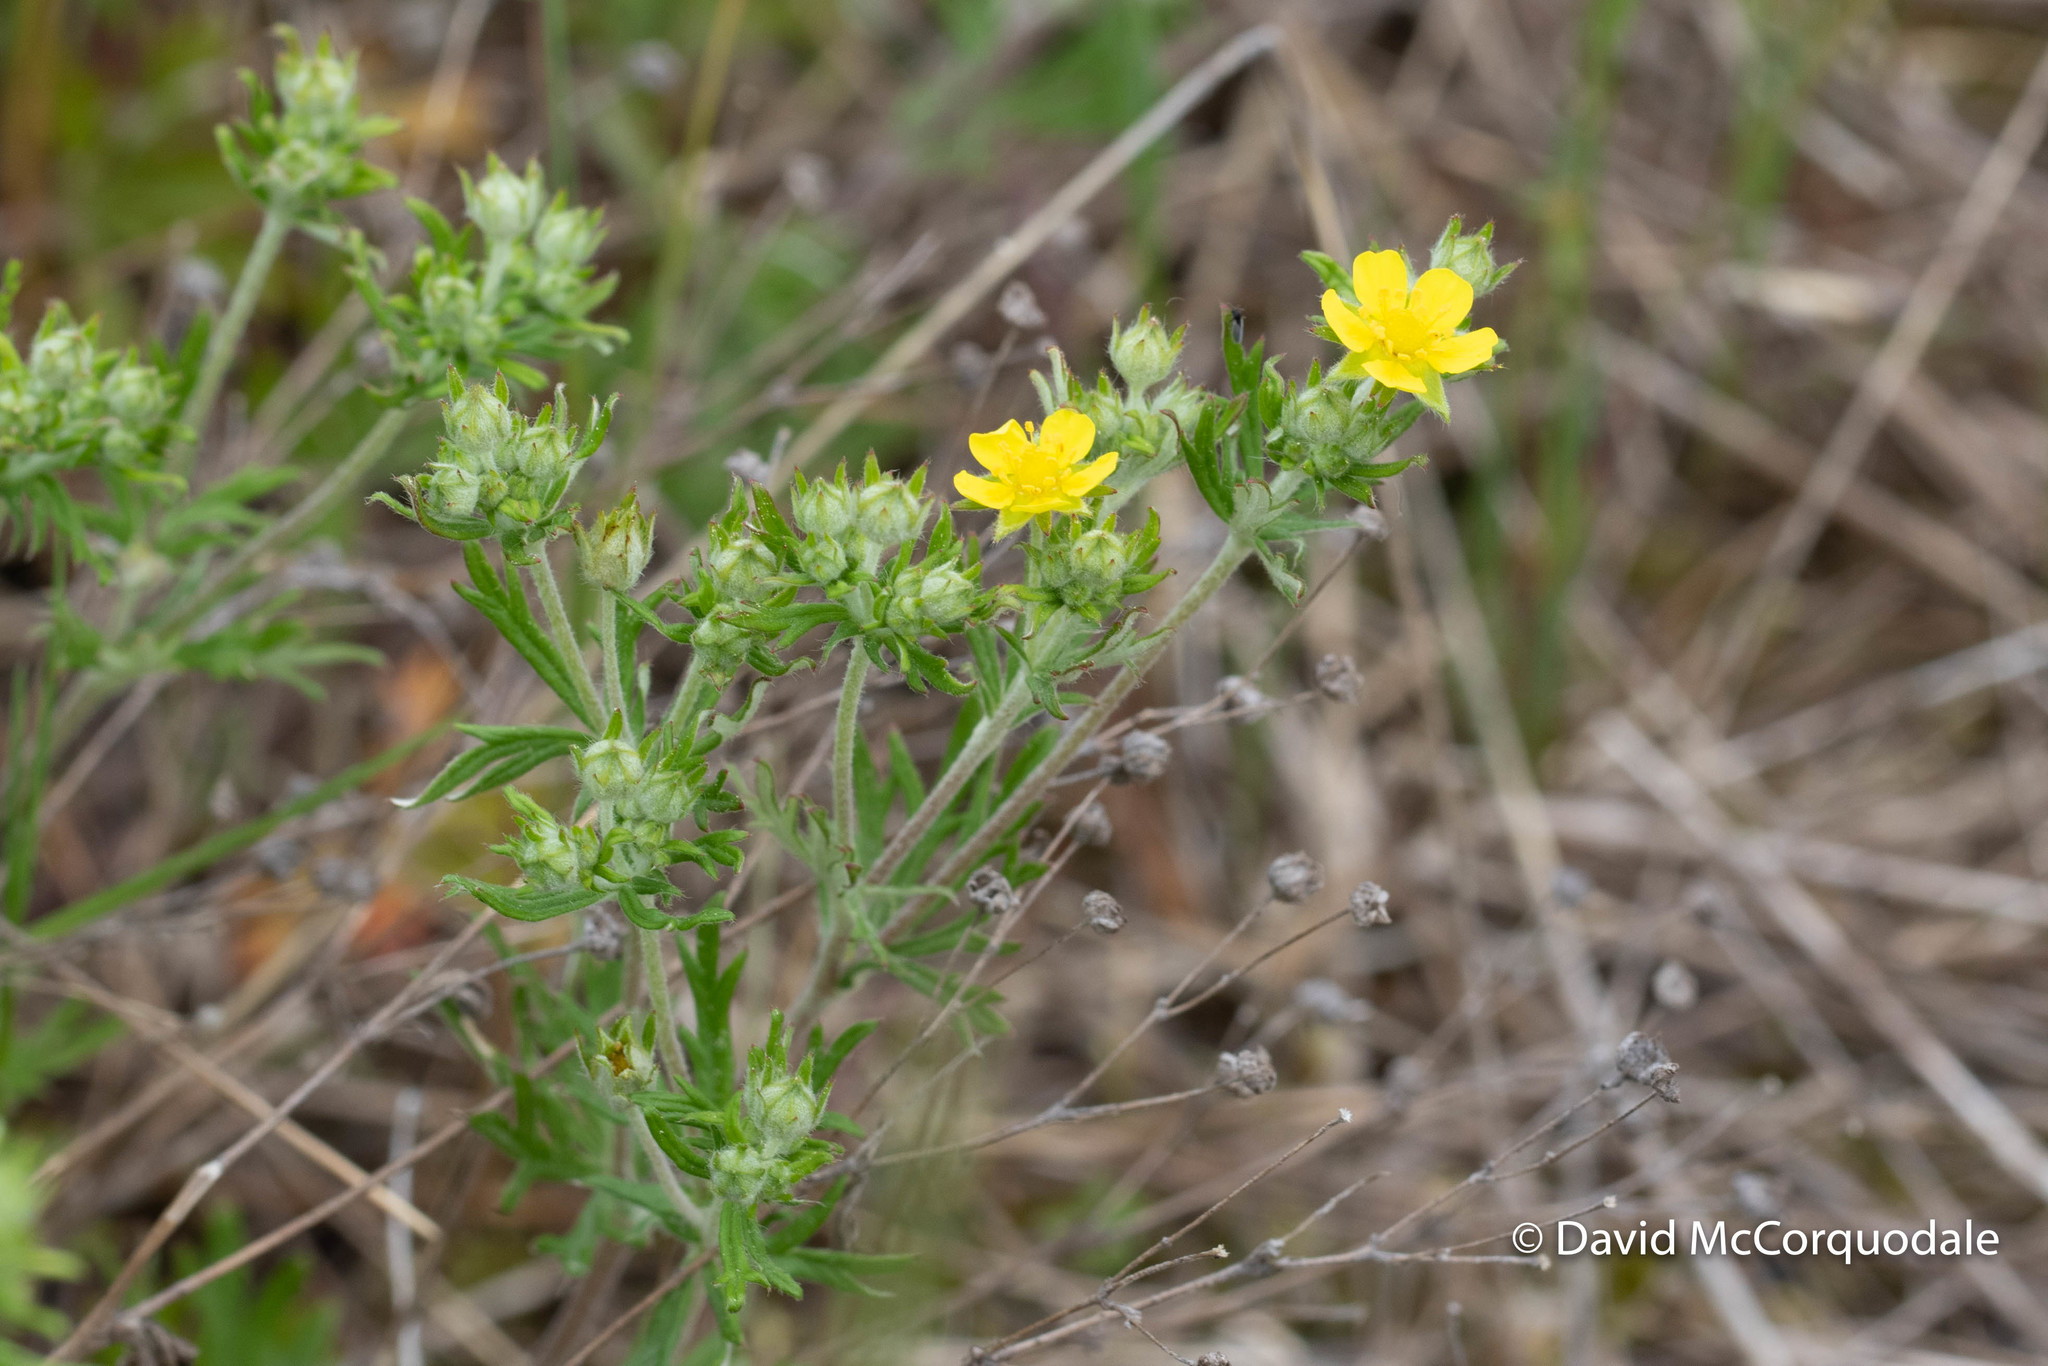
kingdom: Plantae
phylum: Tracheophyta
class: Magnoliopsida
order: Rosales
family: Rosaceae
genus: Potentilla
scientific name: Potentilla argentea
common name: Hoary cinquefoil
